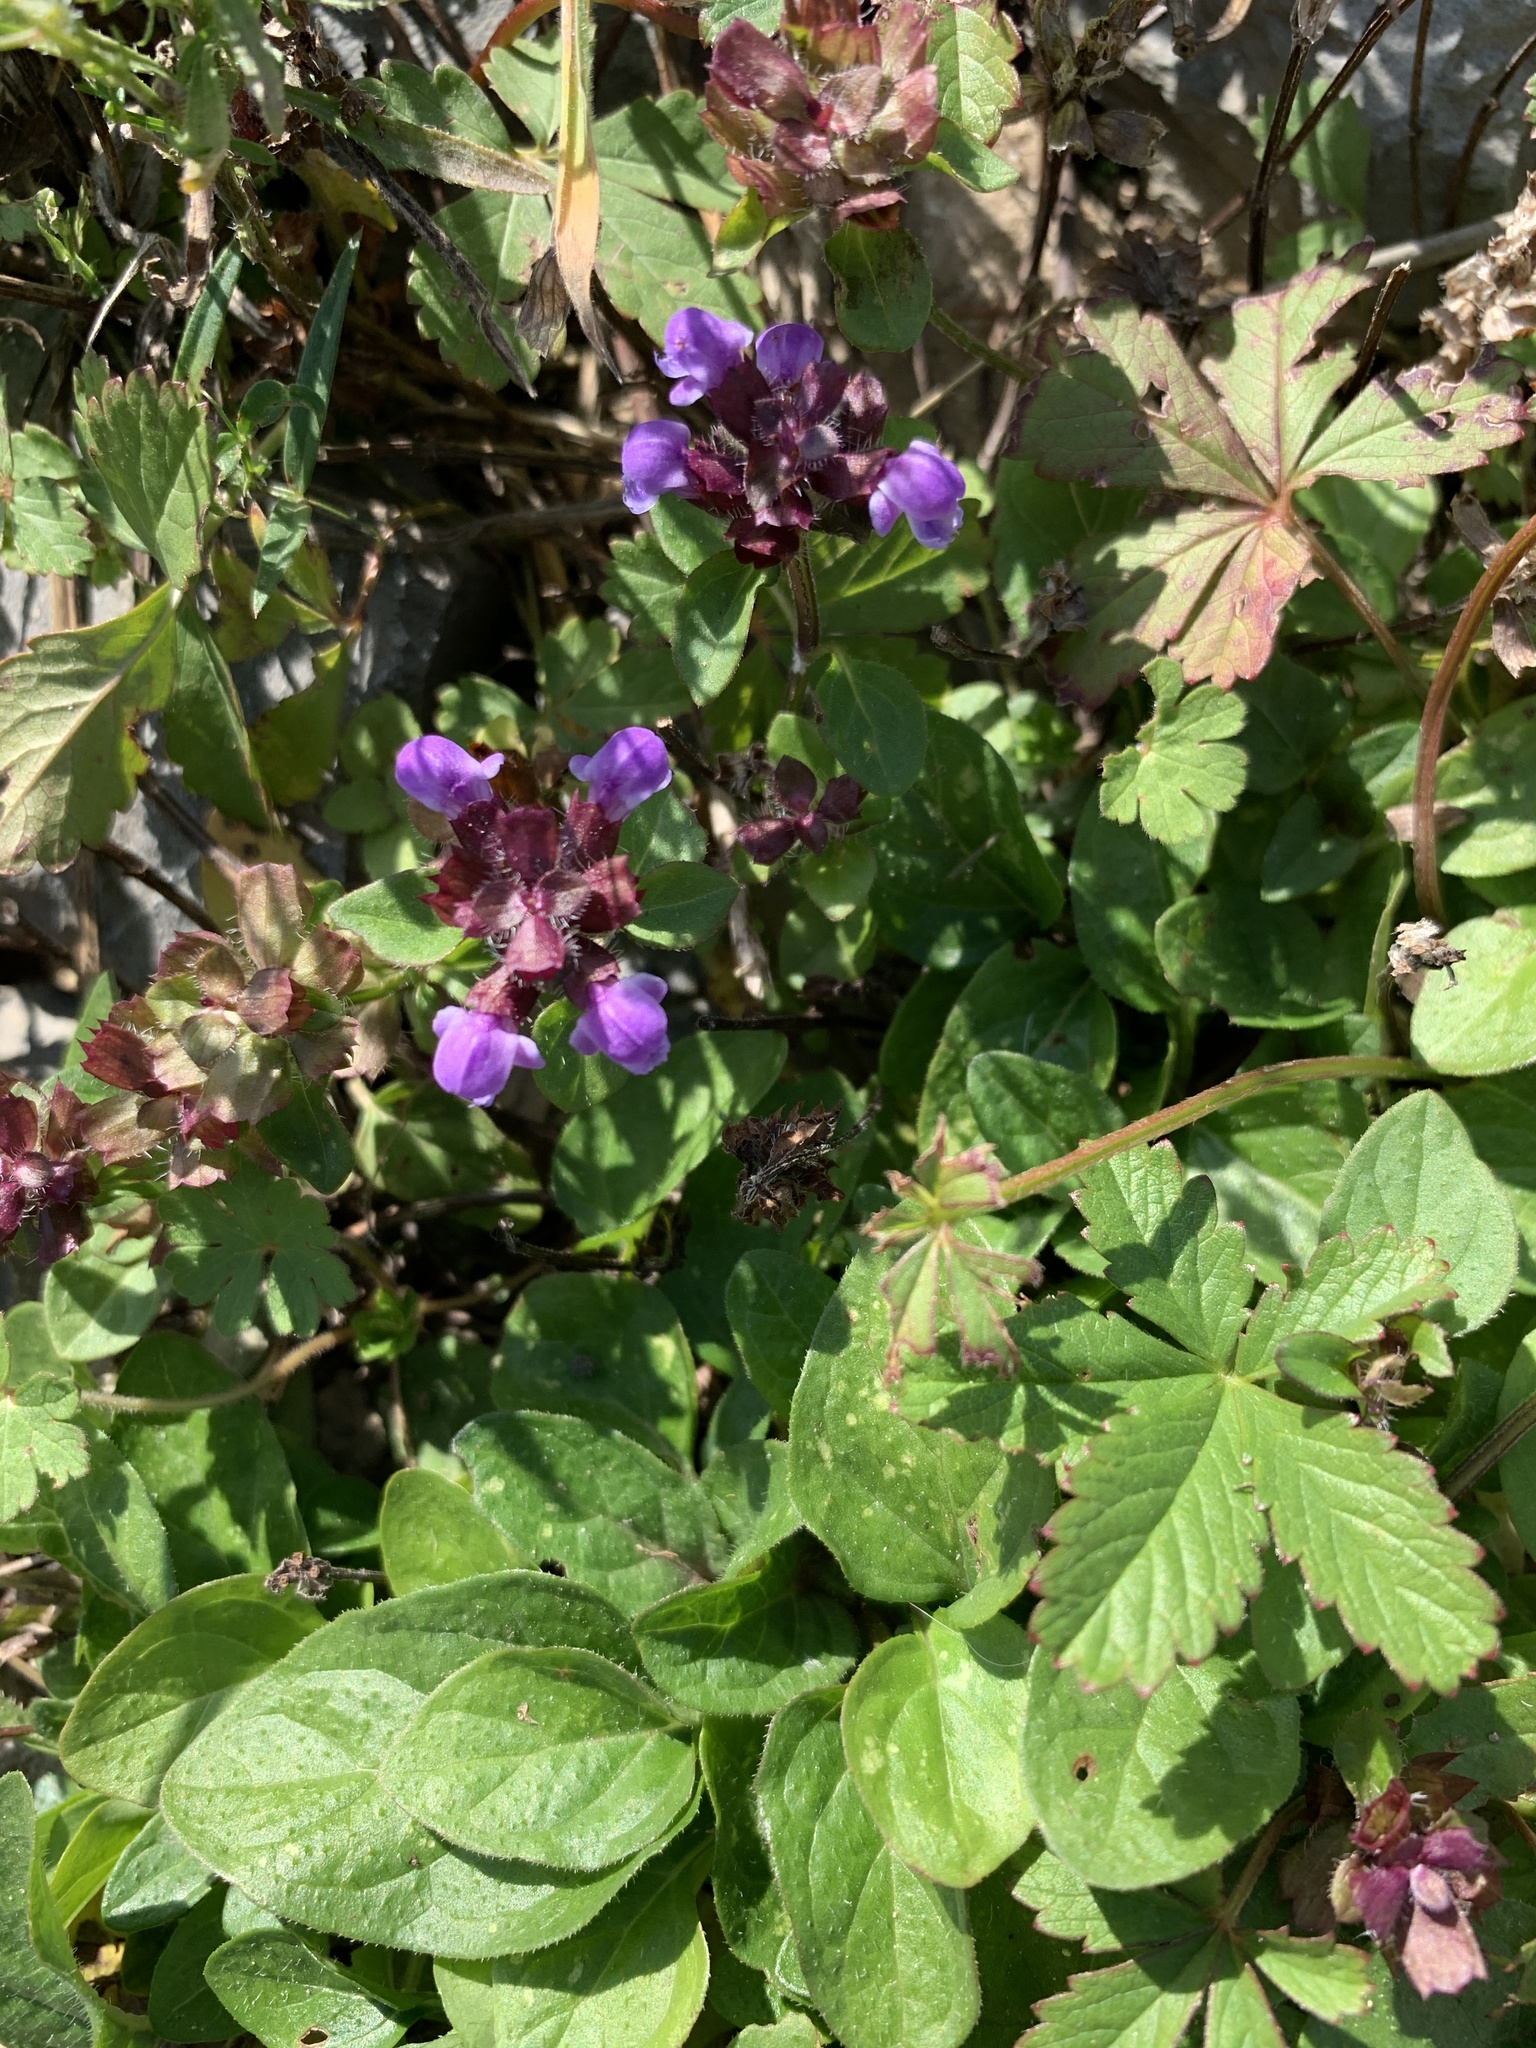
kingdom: Plantae
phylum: Tracheophyta
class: Magnoliopsida
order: Lamiales
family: Lamiaceae
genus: Prunella
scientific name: Prunella vulgaris
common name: Heal-all
